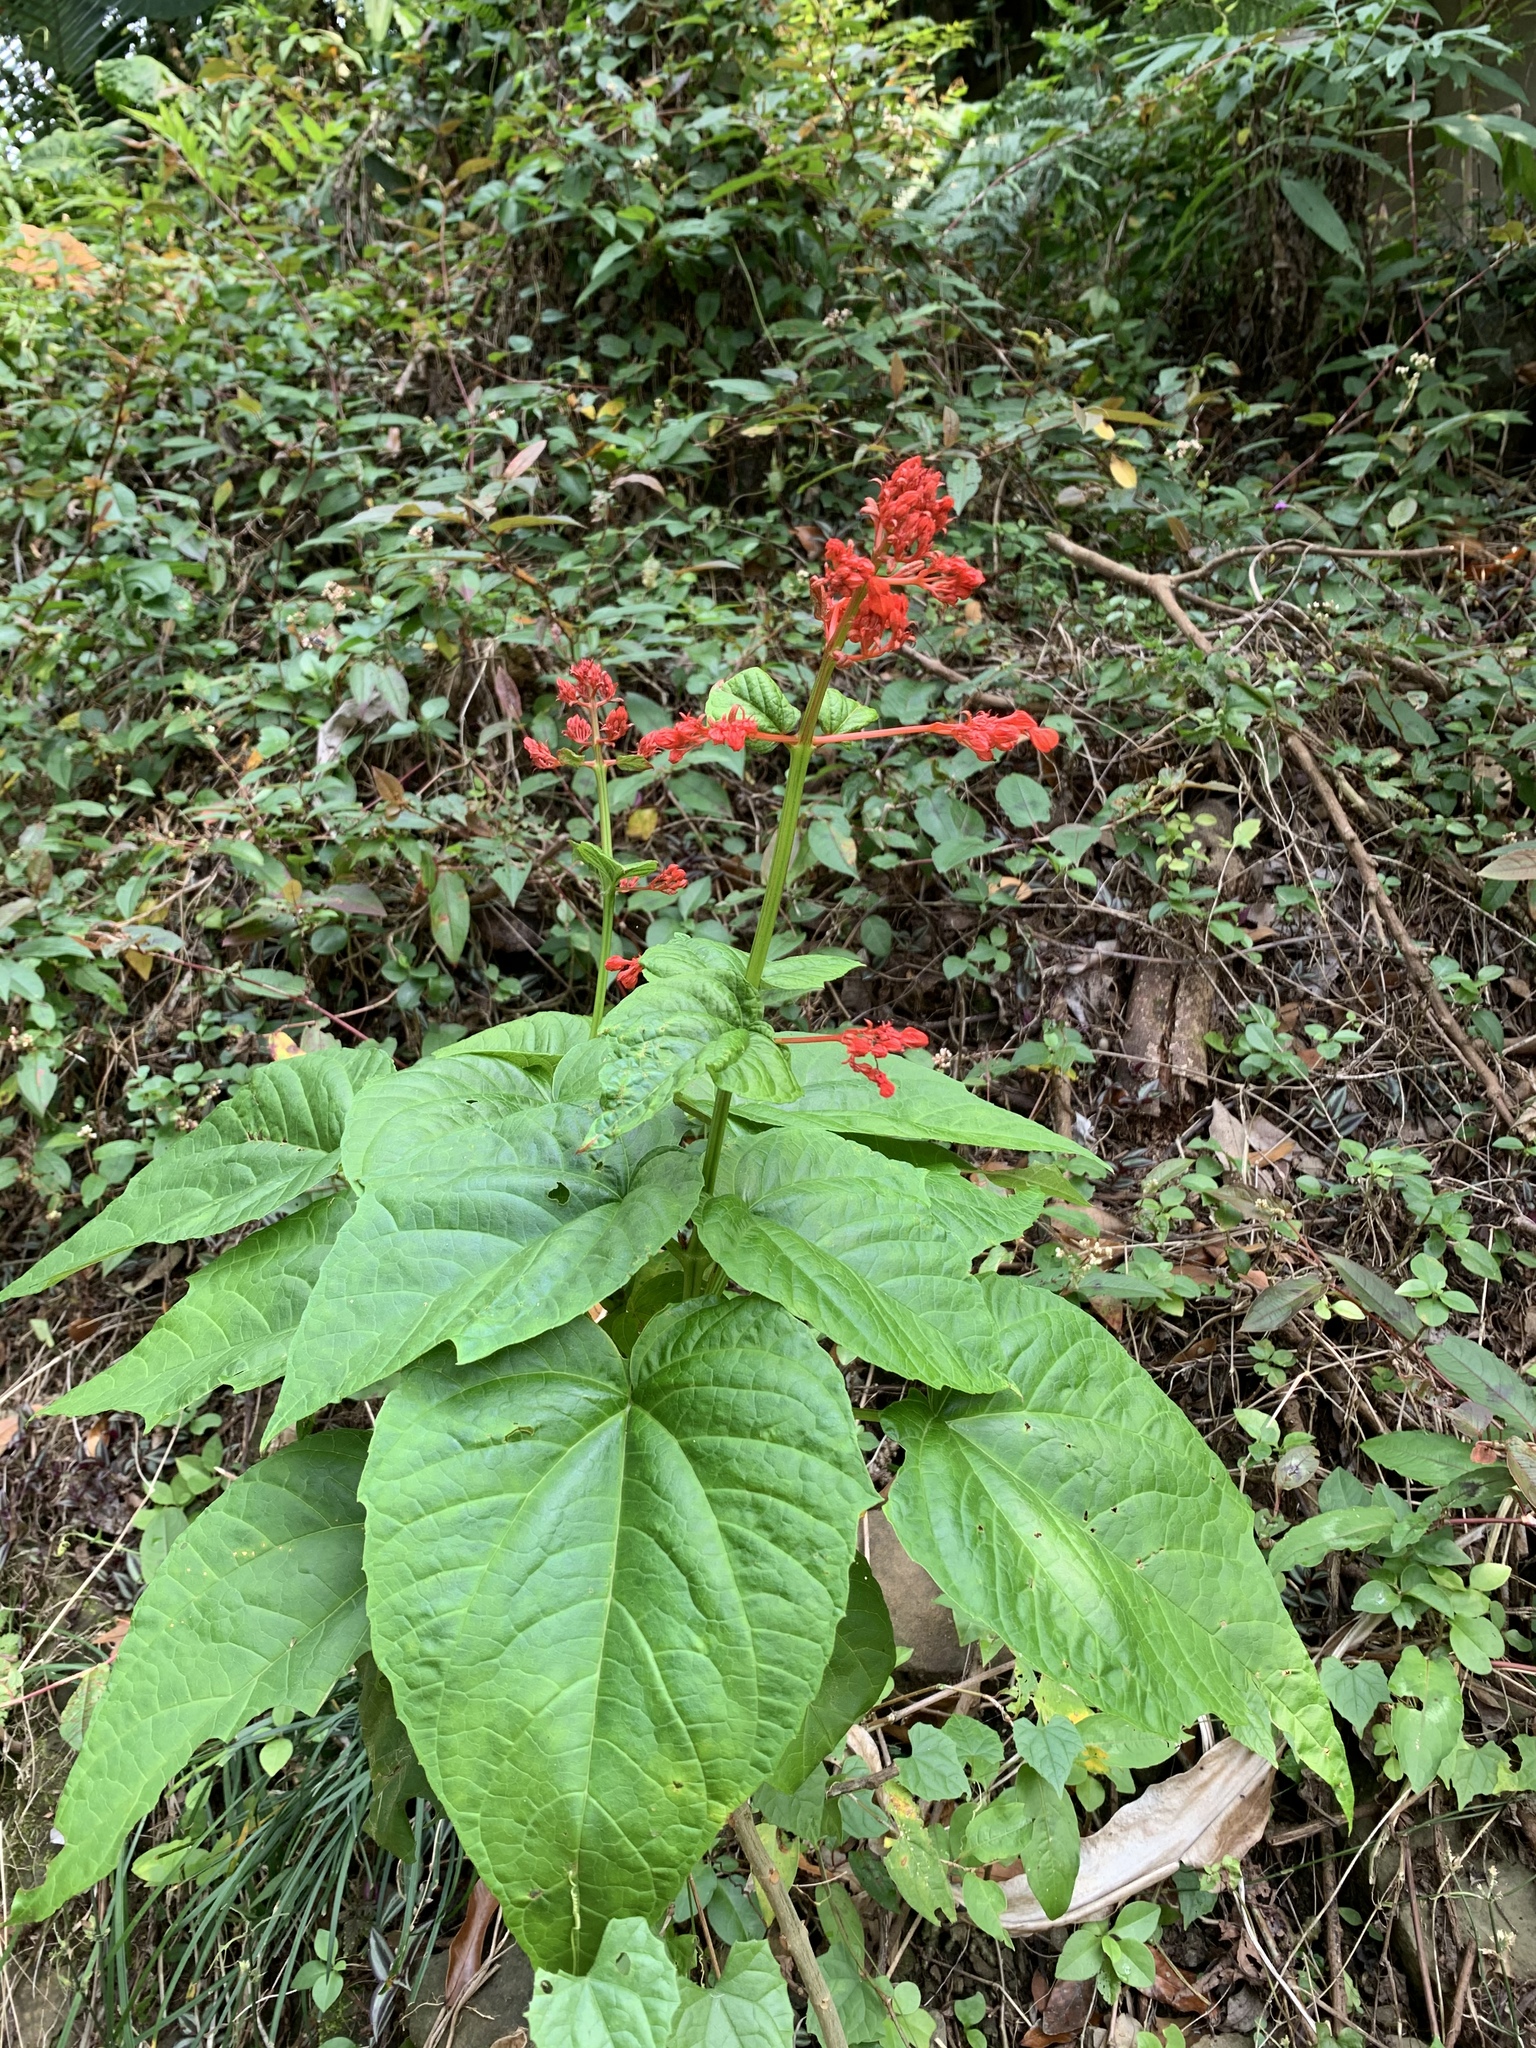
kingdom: Plantae
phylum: Tracheophyta
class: Magnoliopsida
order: Lamiales
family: Lamiaceae
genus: Clerodendrum
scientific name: Clerodendrum japonicum
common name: Japanese glorybower
